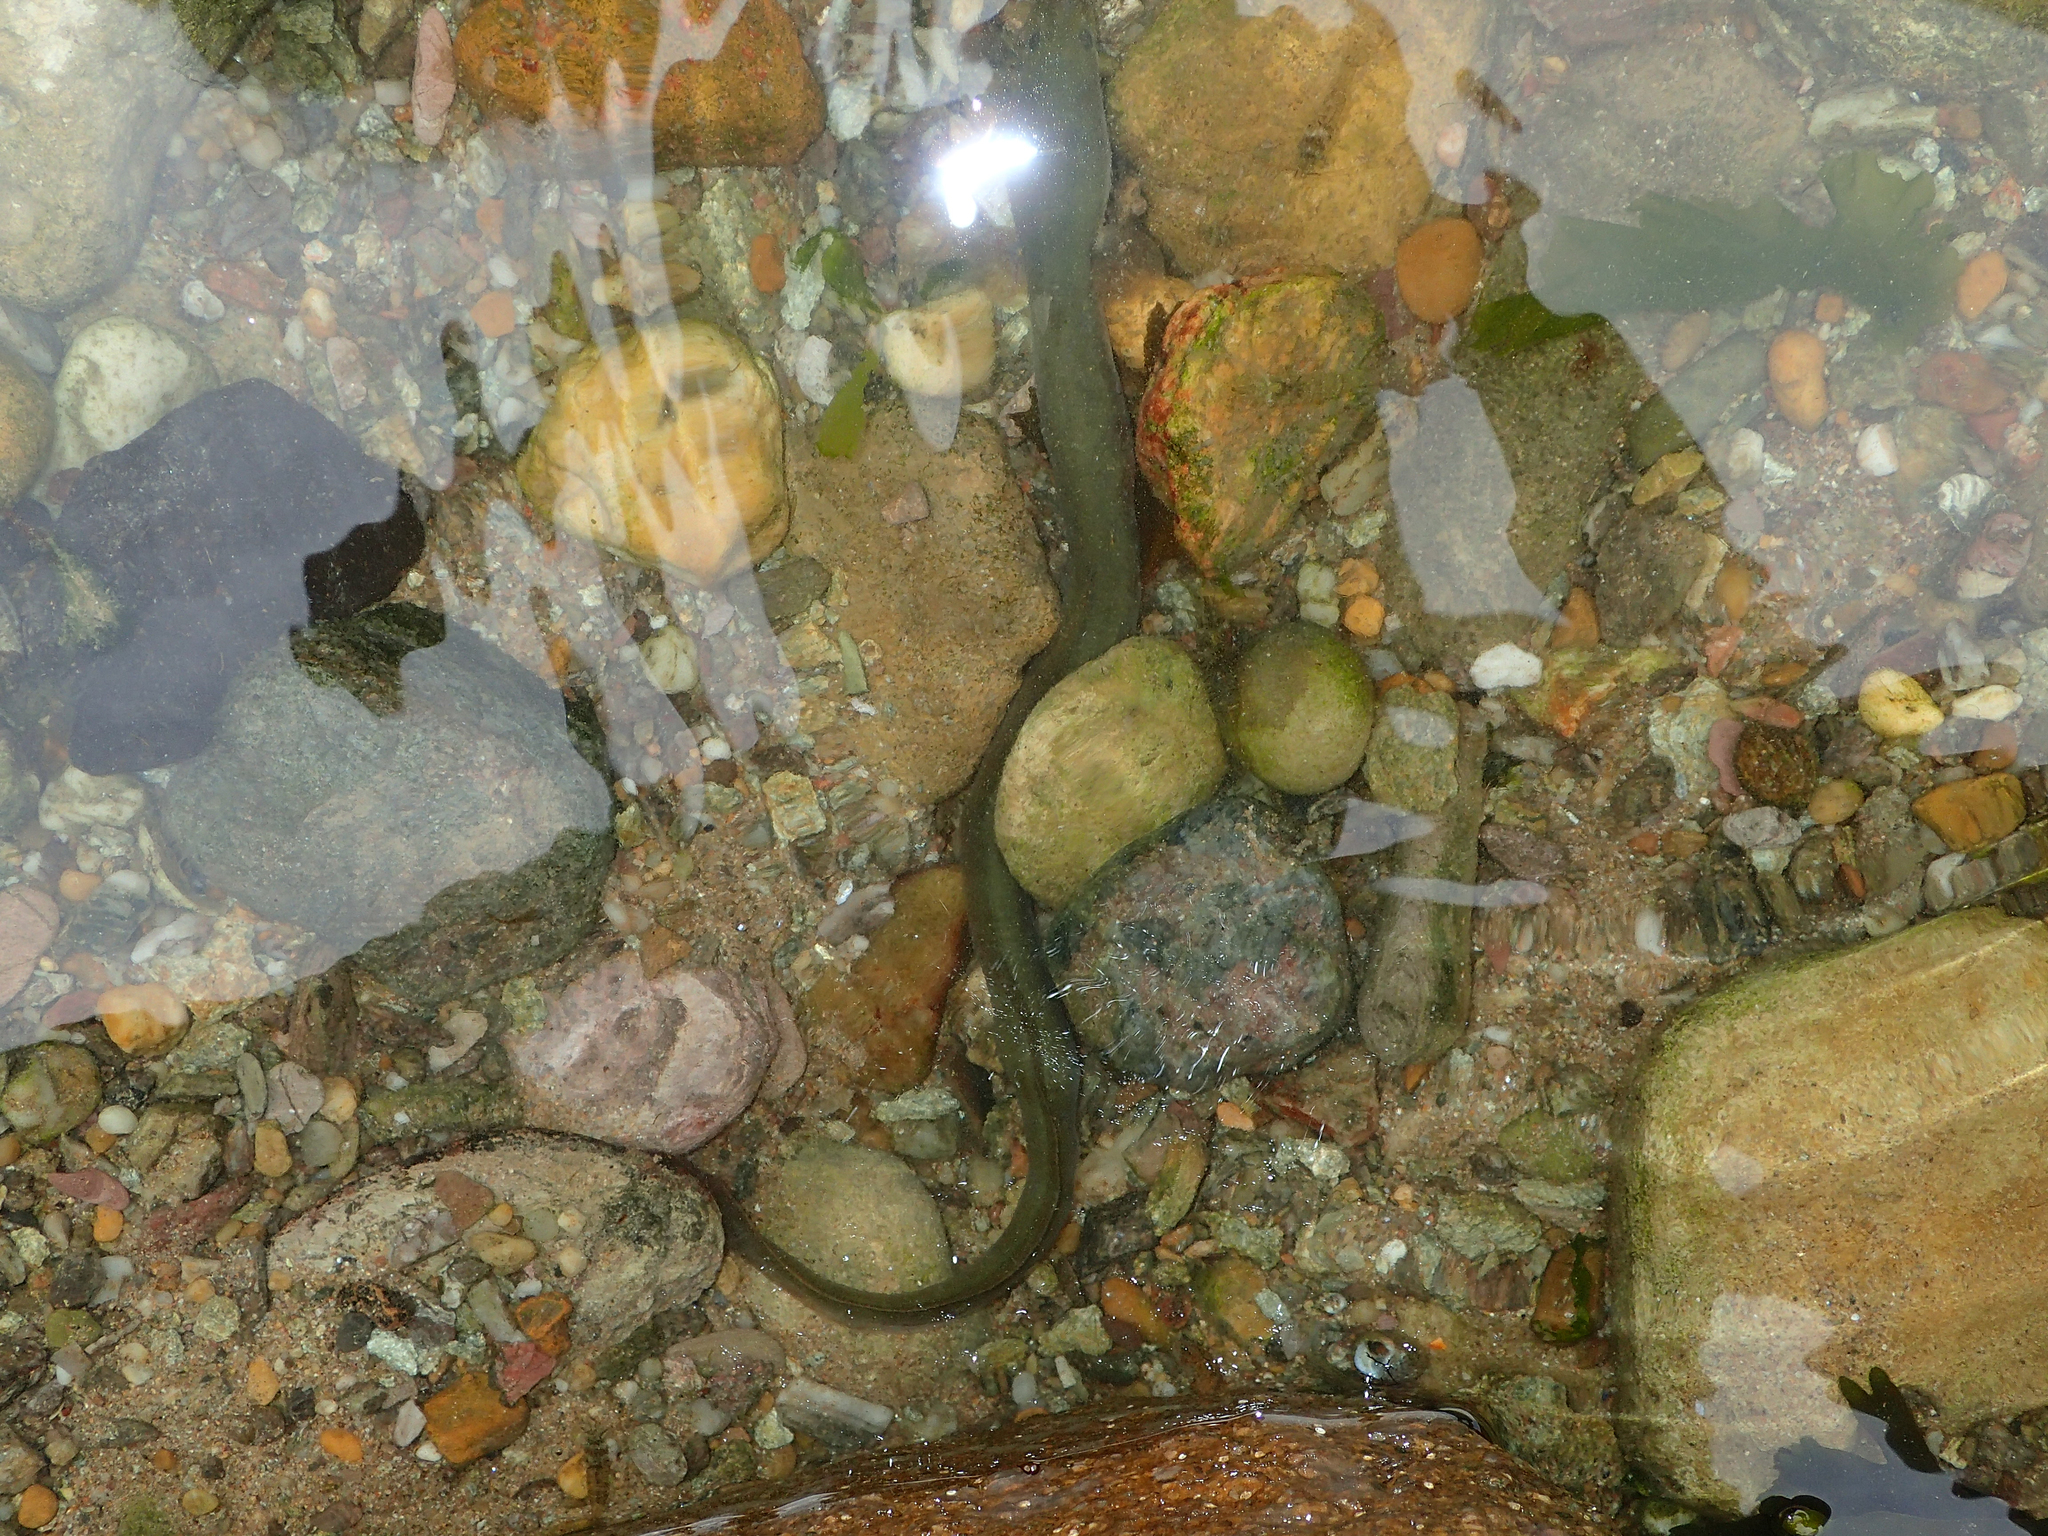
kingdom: Animalia
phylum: Chordata
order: Anguilliformes
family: Anguillidae
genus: Anguilla
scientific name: Anguilla anguilla
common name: European eel
